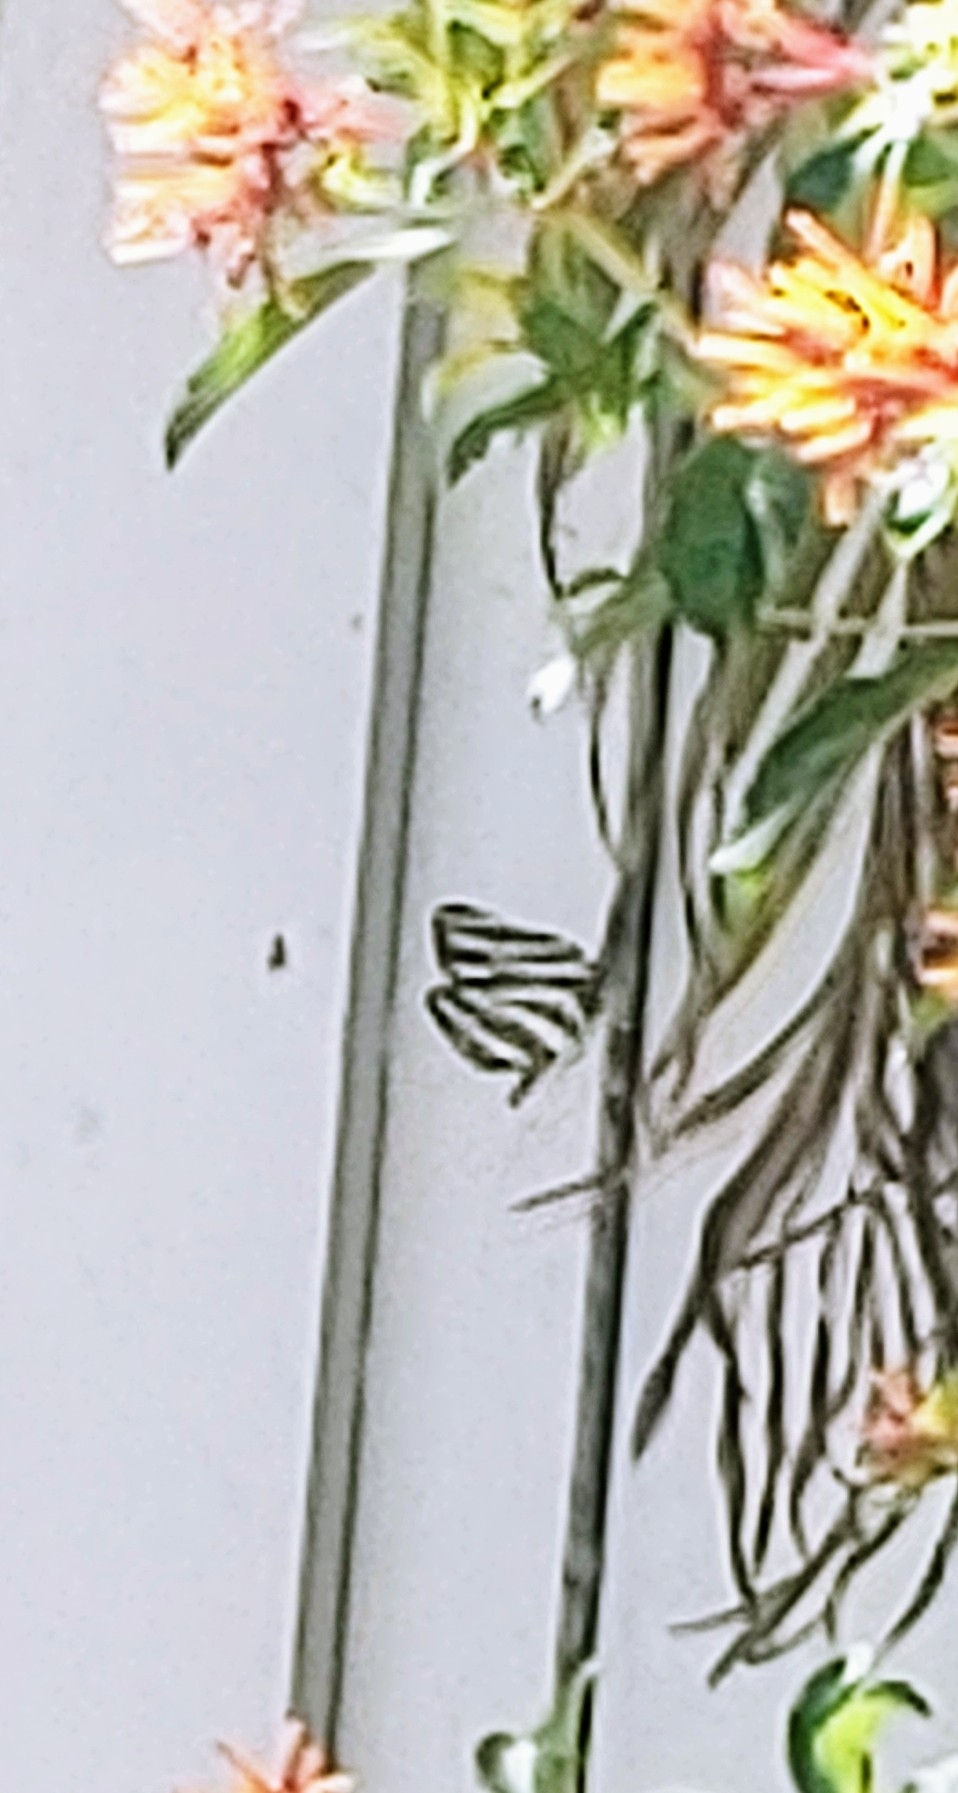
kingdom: Animalia
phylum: Arthropoda
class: Insecta
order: Lepidoptera
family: Nymphalidae
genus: Heliconius
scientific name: Heliconius charithonia
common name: Zebra long wing
